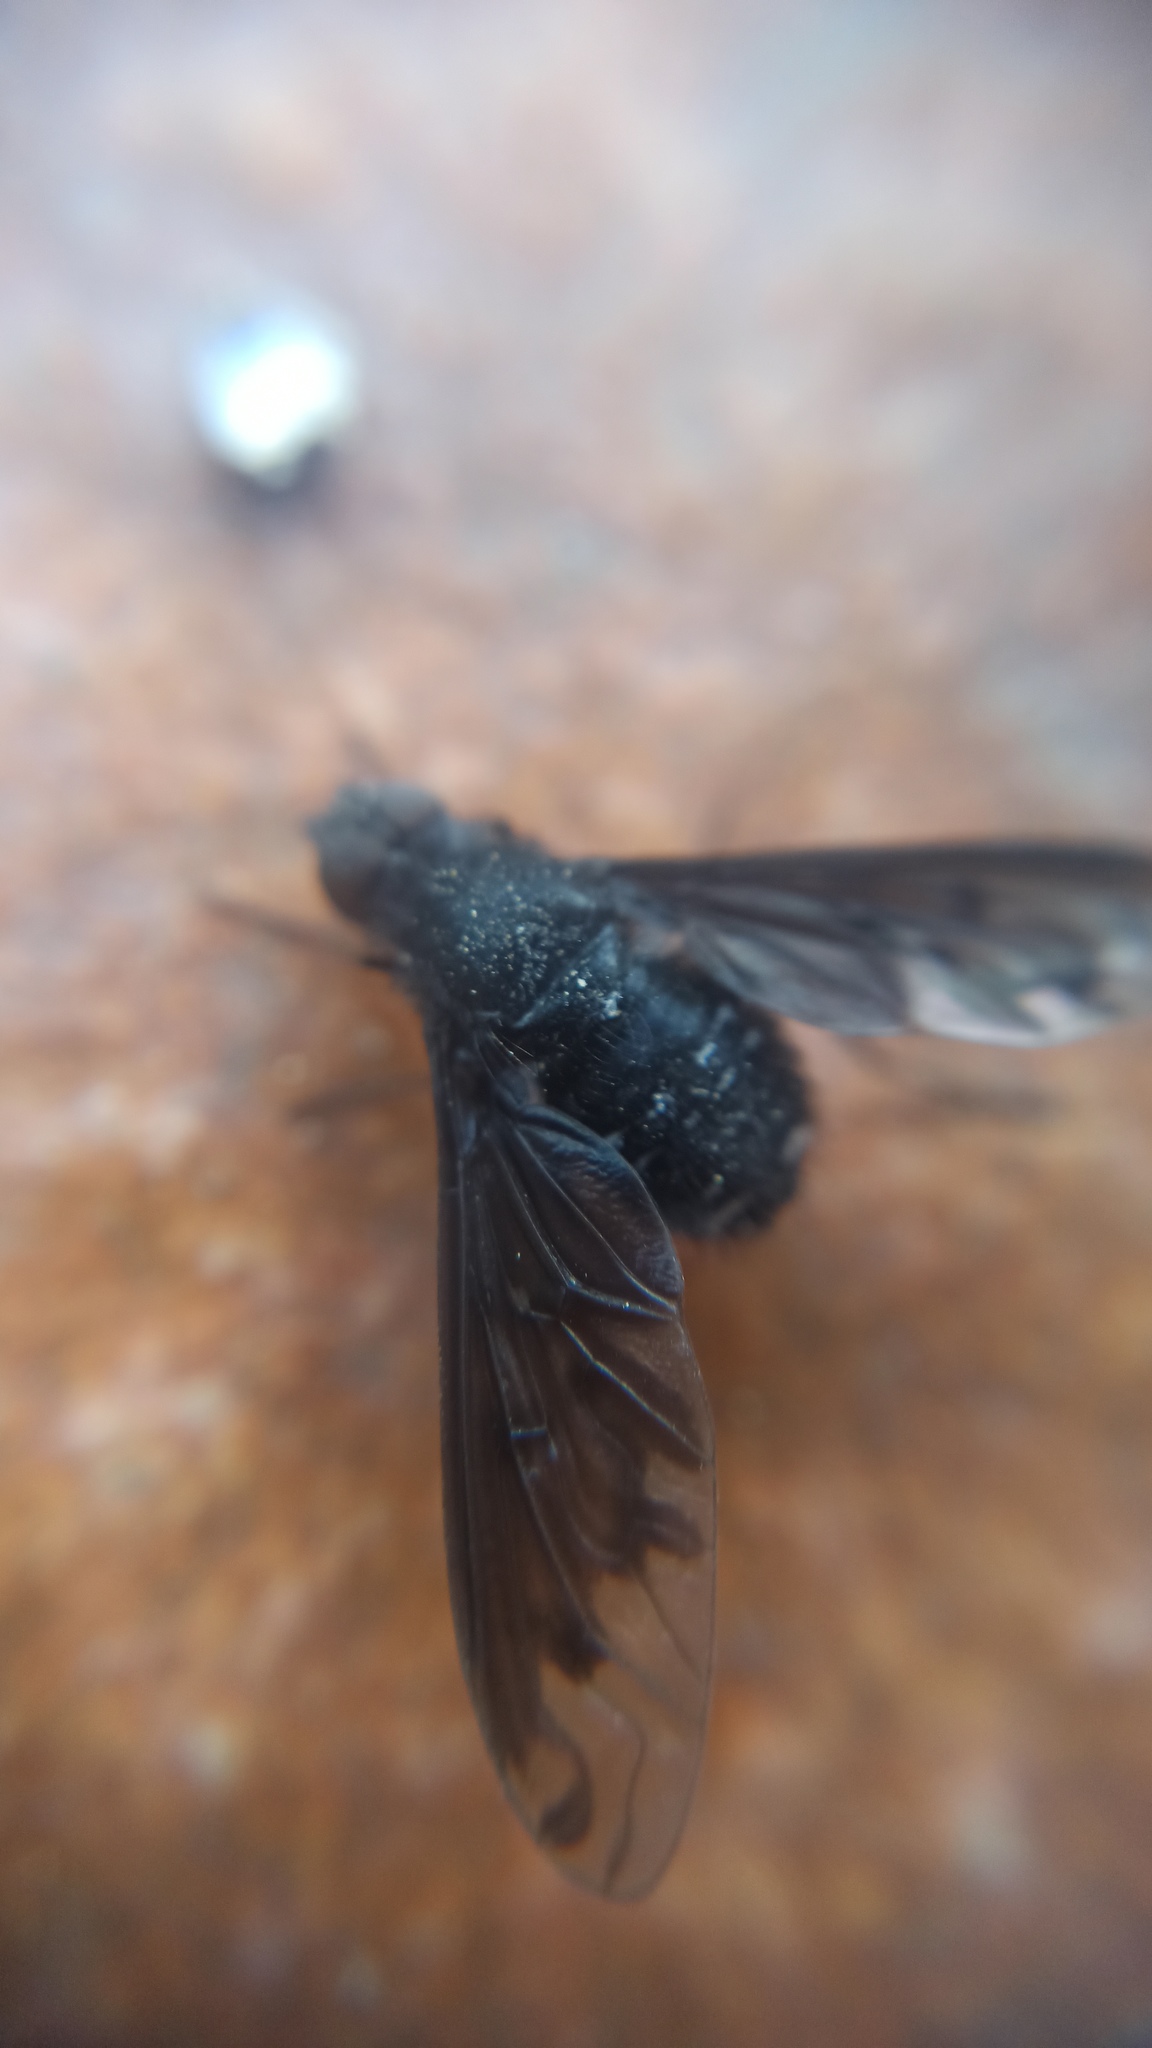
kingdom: Animalia
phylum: Arthropoda
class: Insecta
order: Diptera
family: Bombyliidae
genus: Anthrax
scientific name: Anthrax anthrax
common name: Anthracite bee-fly
